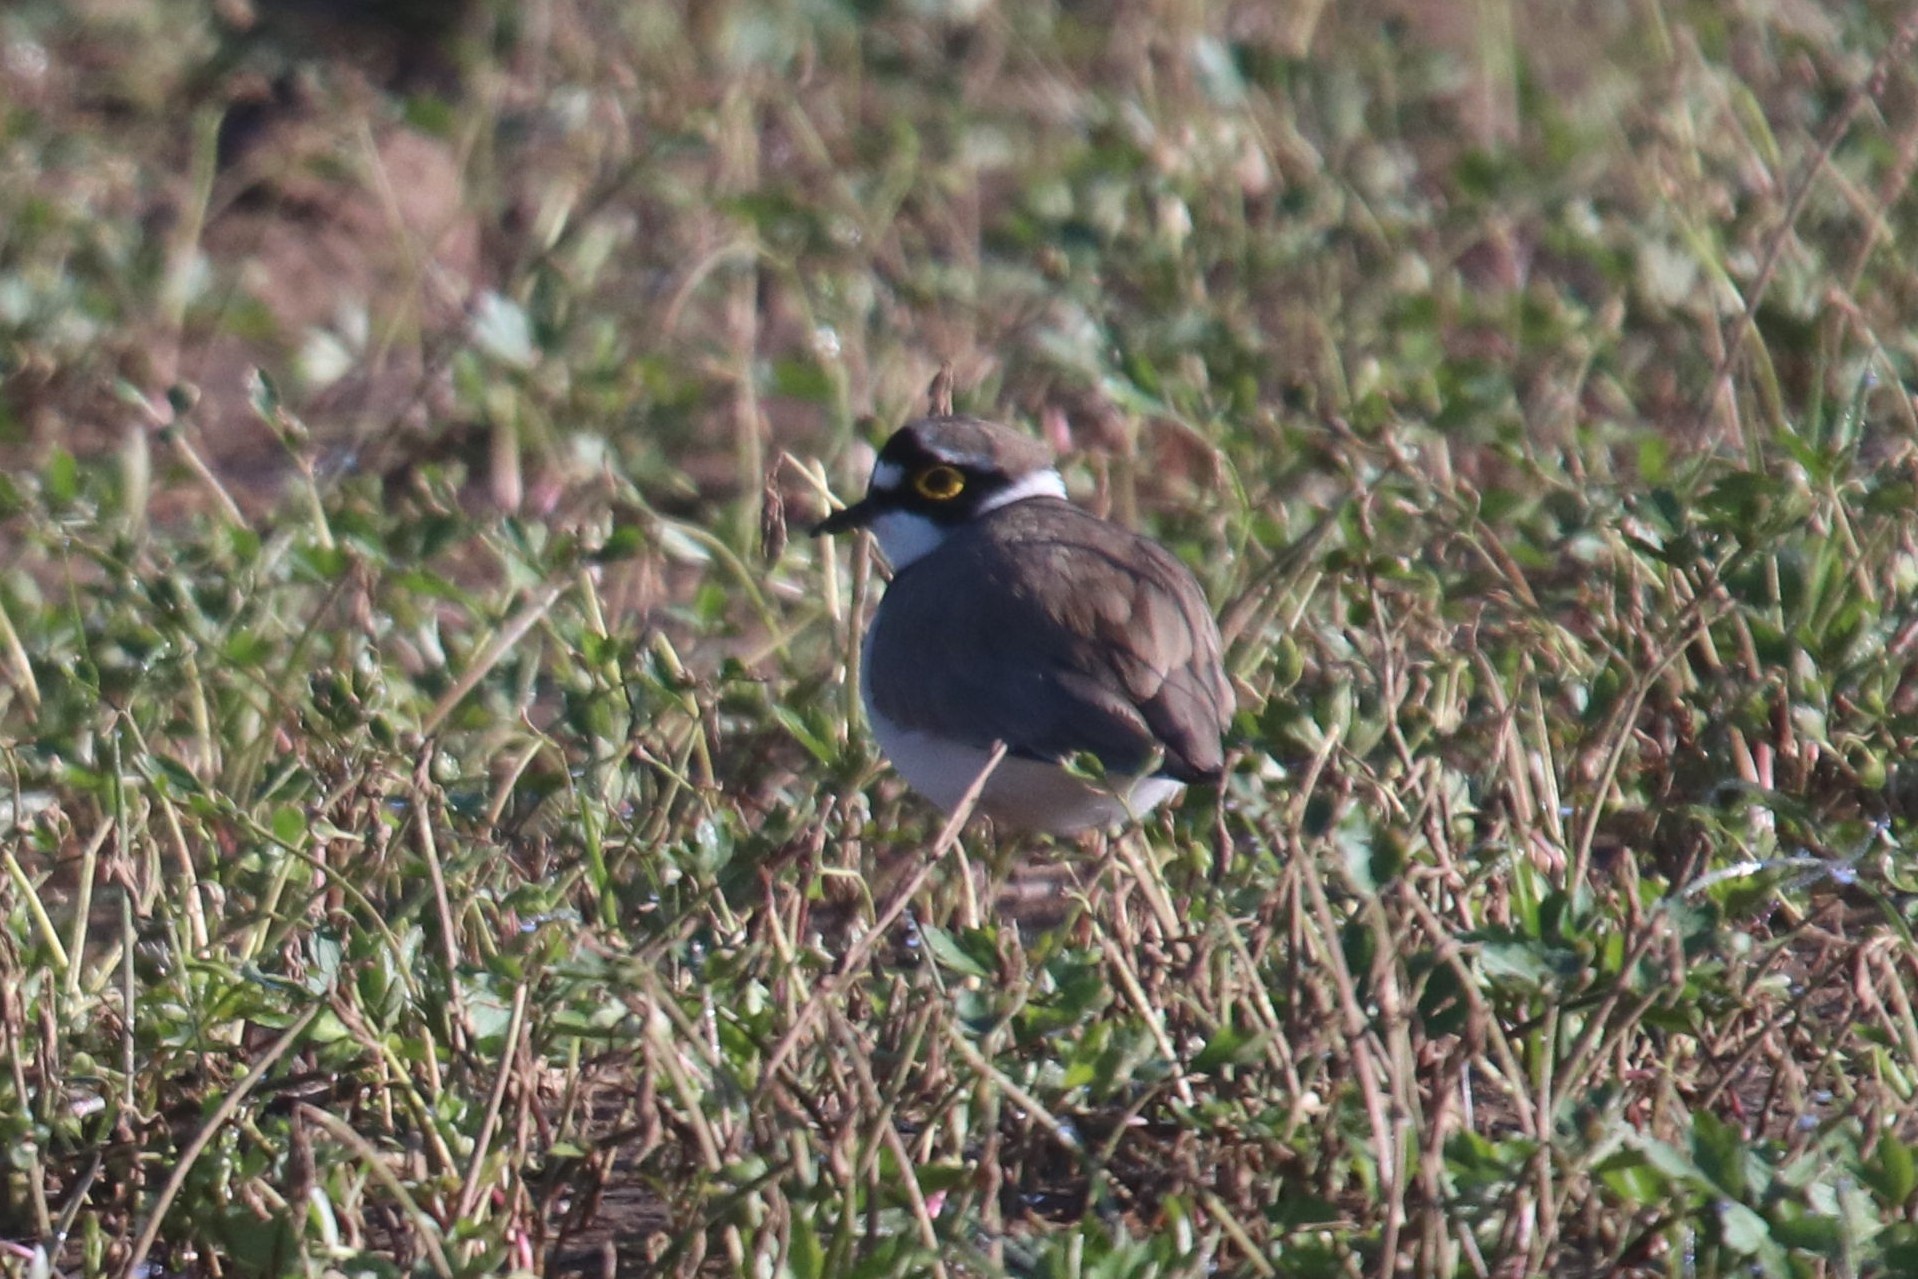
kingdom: Animalia
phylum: Chordata
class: Aves
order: Charadriiformes
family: Charadriidae
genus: Charadrius
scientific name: Charadrius dubius
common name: Little ringed plover
